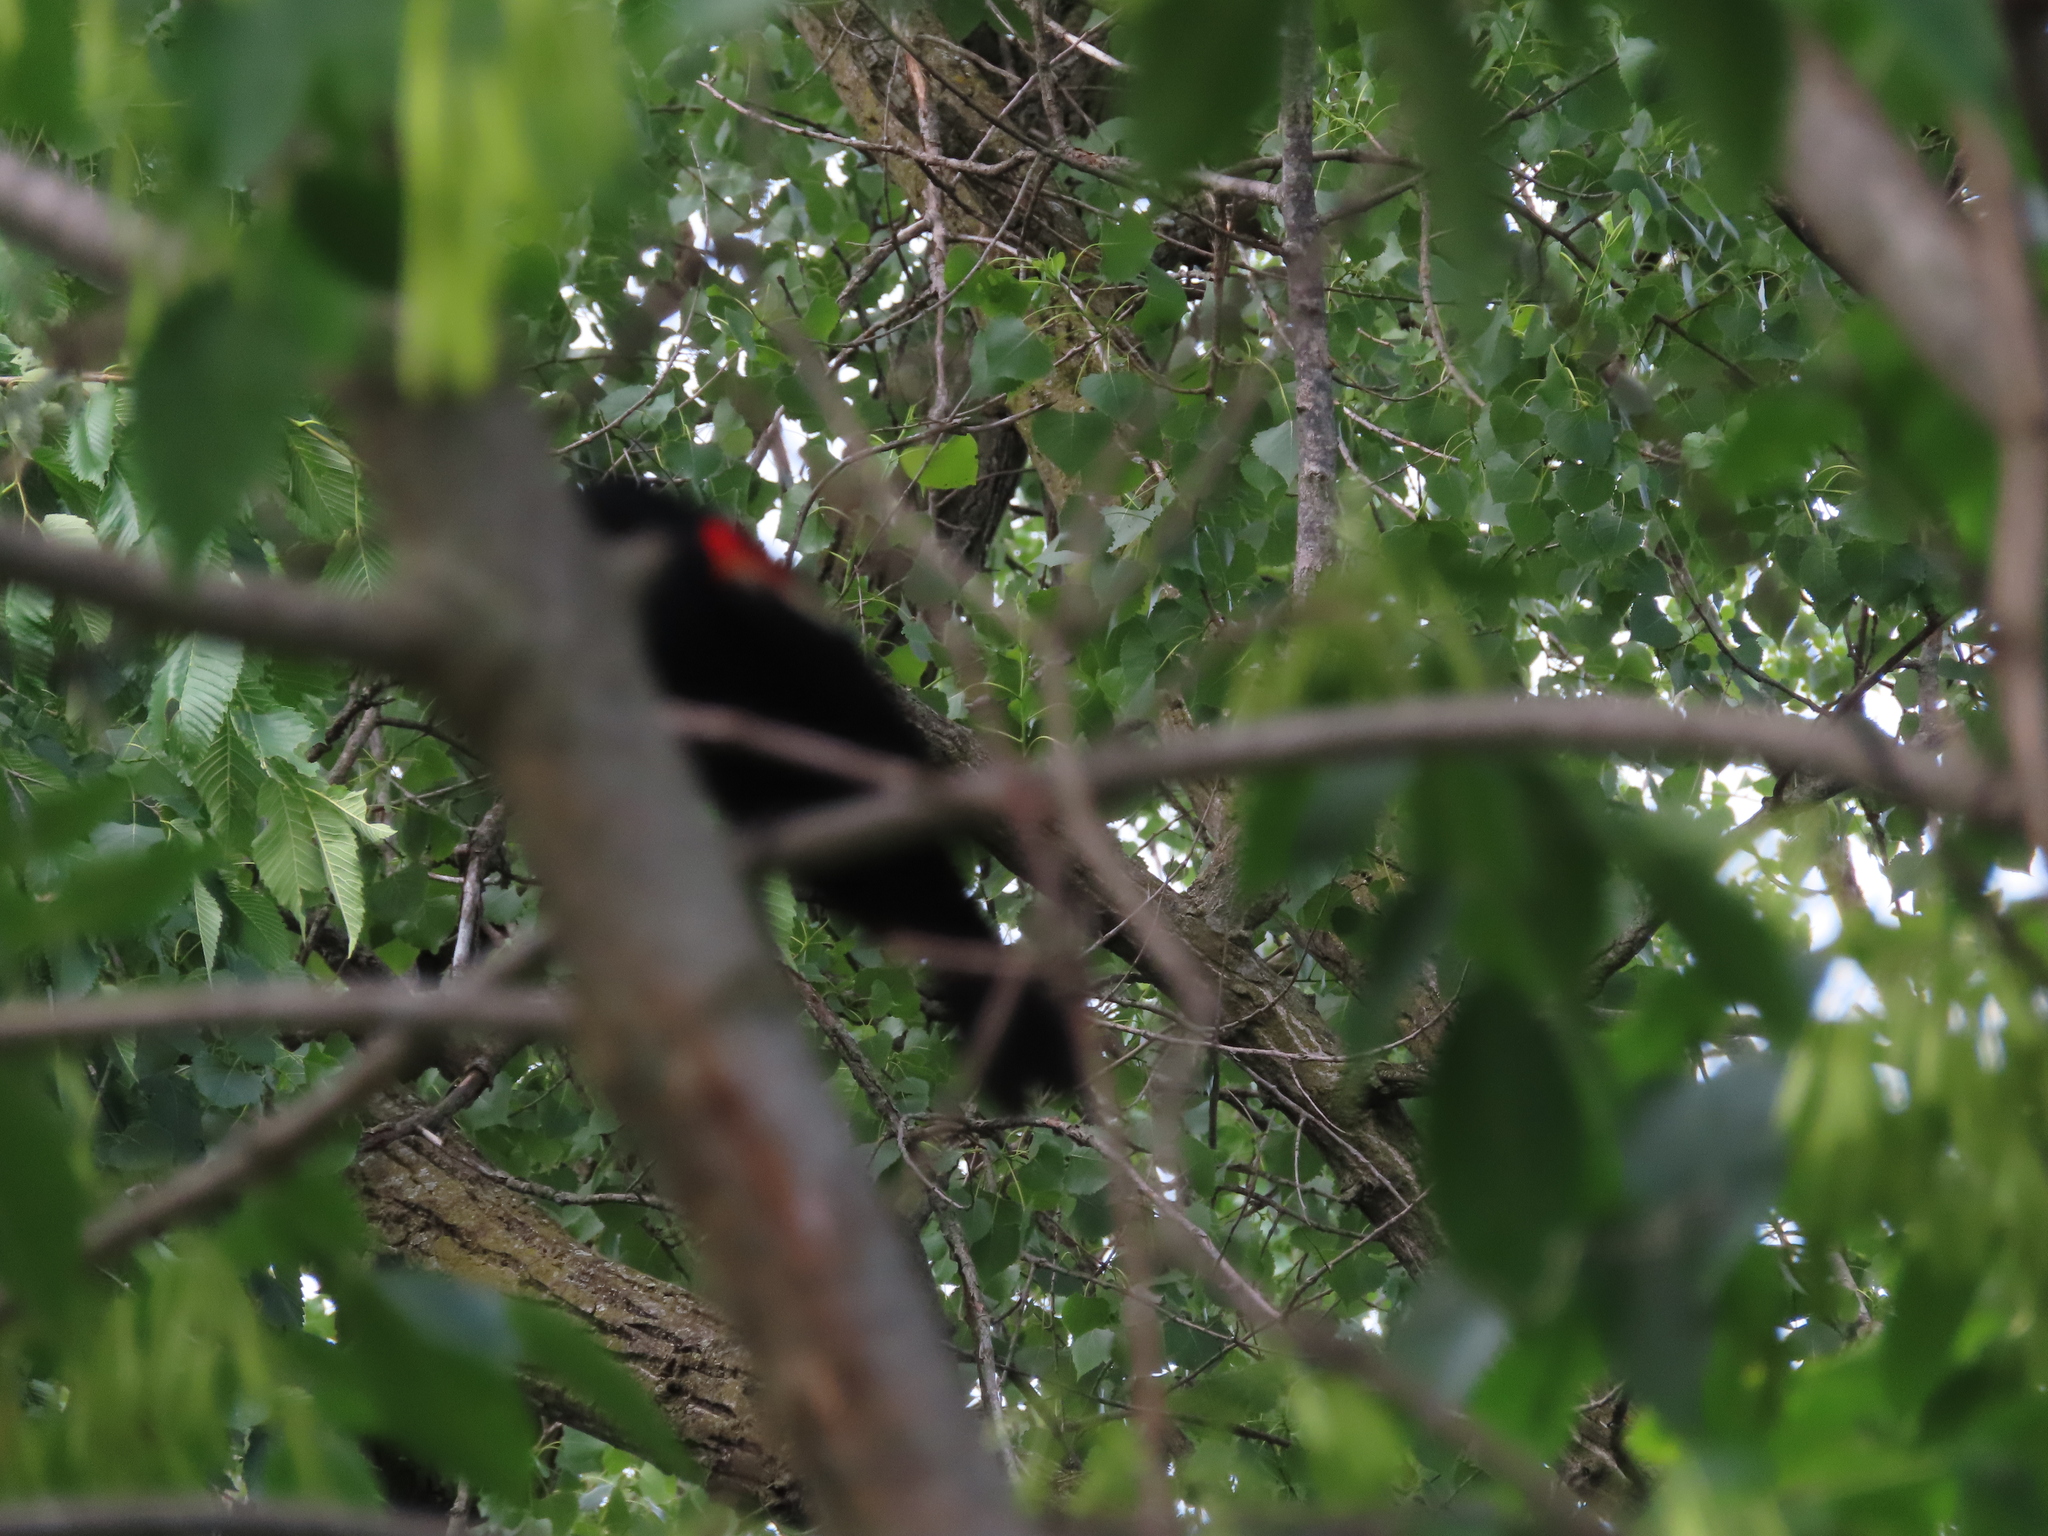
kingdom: Animalia
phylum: Chordata
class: Aves
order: Passeriformes
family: Icteridae
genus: Agelaius
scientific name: Agelaius phoeniceus
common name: Red-winged blackbird
